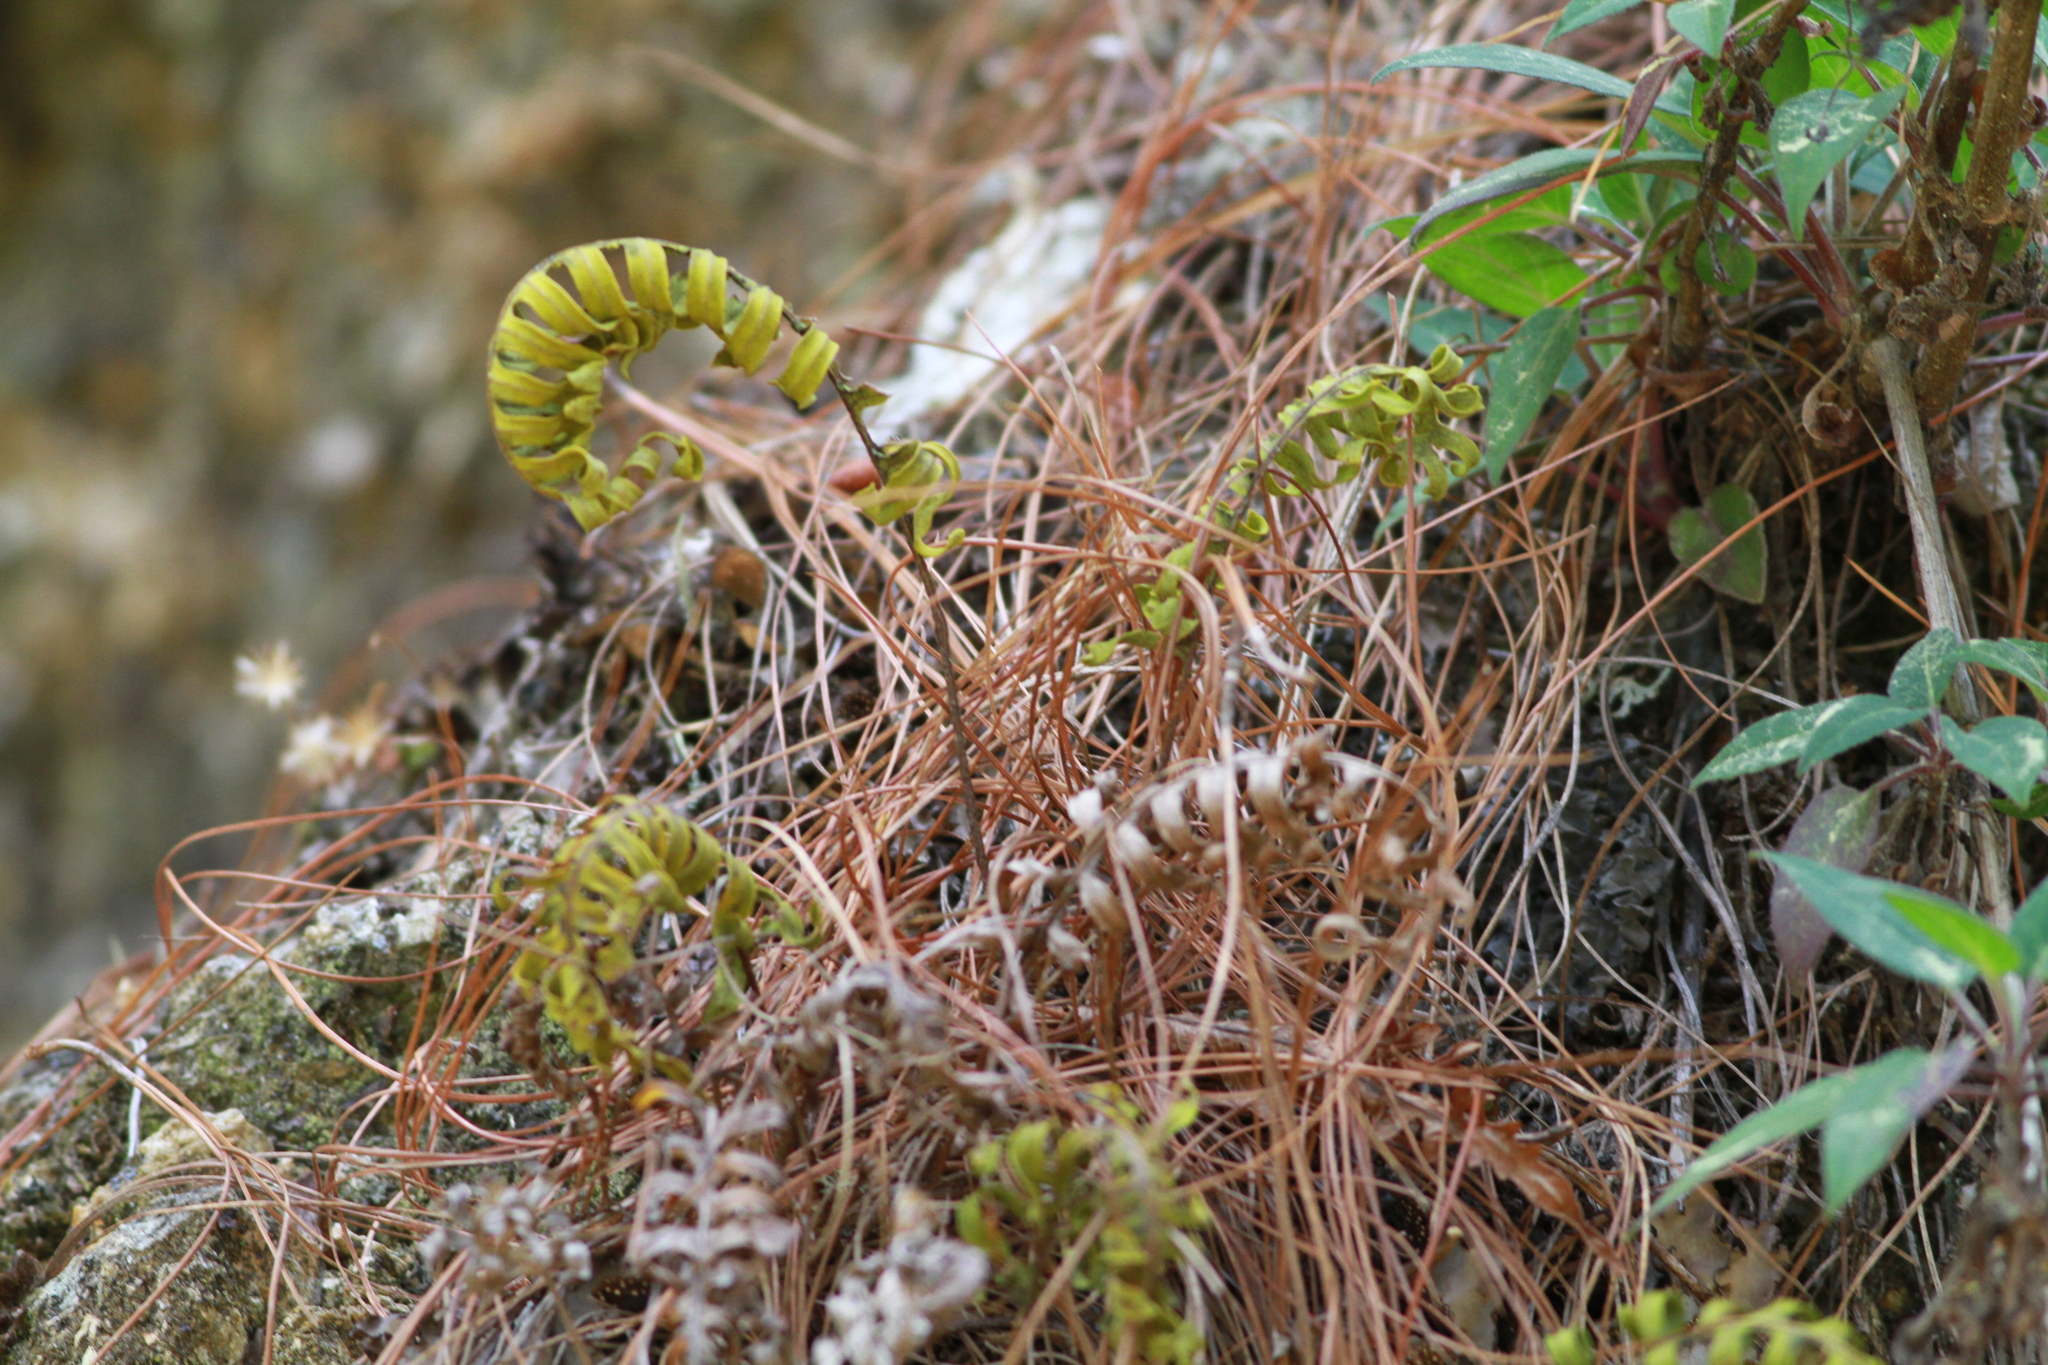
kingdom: Plantae
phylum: Tracheophyta
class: Polypodiopsida
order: Polypodiales
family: Polypodiaceae
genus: Pleopeltis
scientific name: Pleopeltis polypodioides
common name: Resurrection fern
